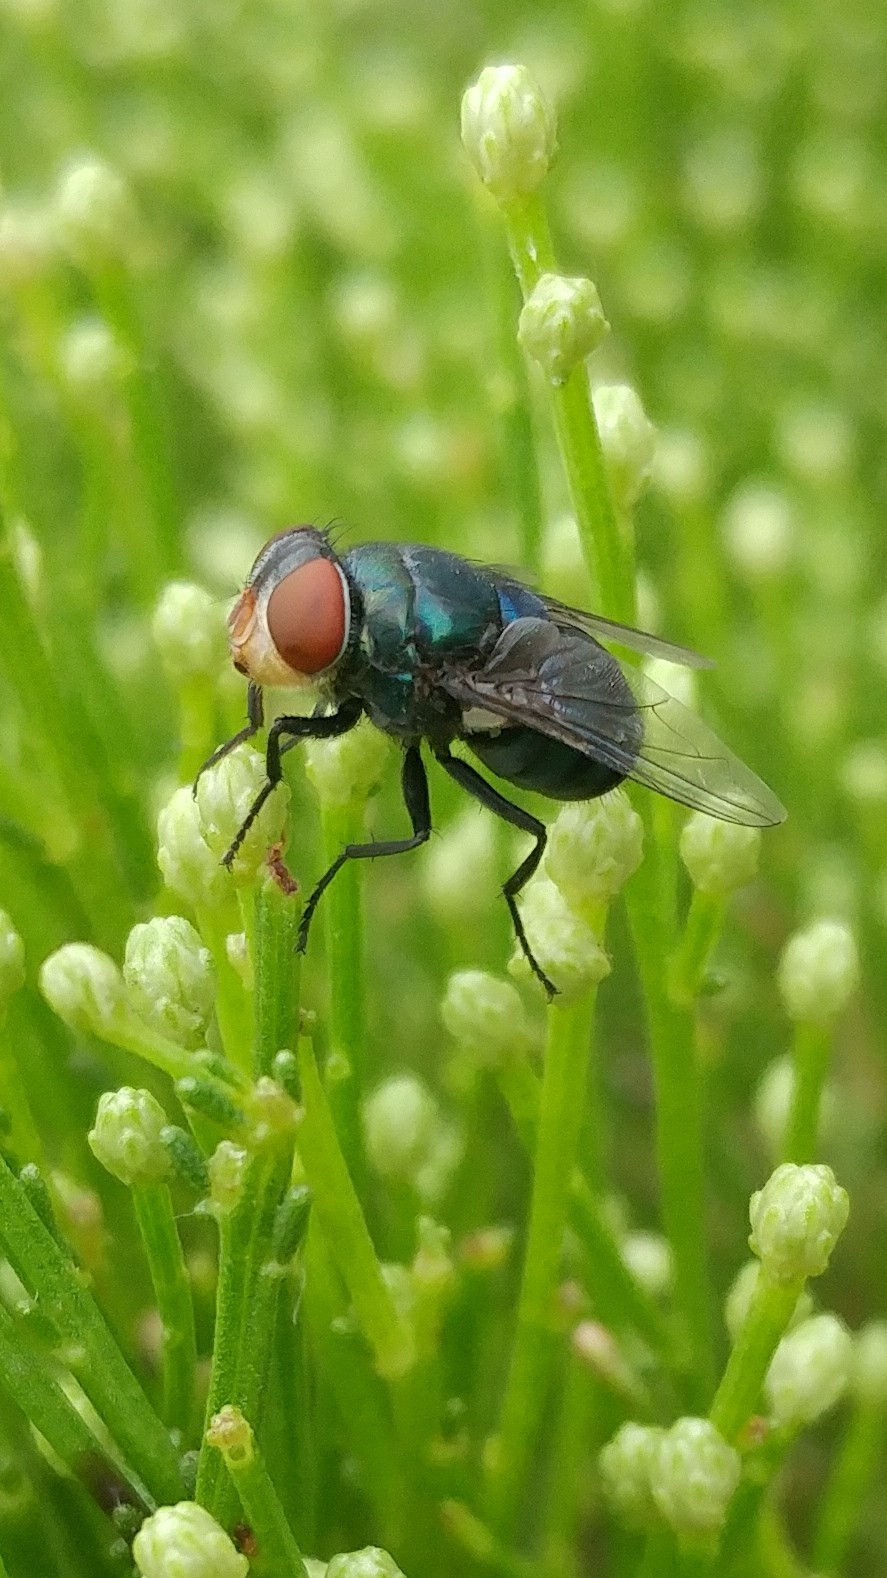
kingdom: Animalia
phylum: Arthropoda
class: Insecta
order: Diptera
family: Calliphoridae
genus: Chrysomya
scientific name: Chrysomya megacephala
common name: Blow fly
